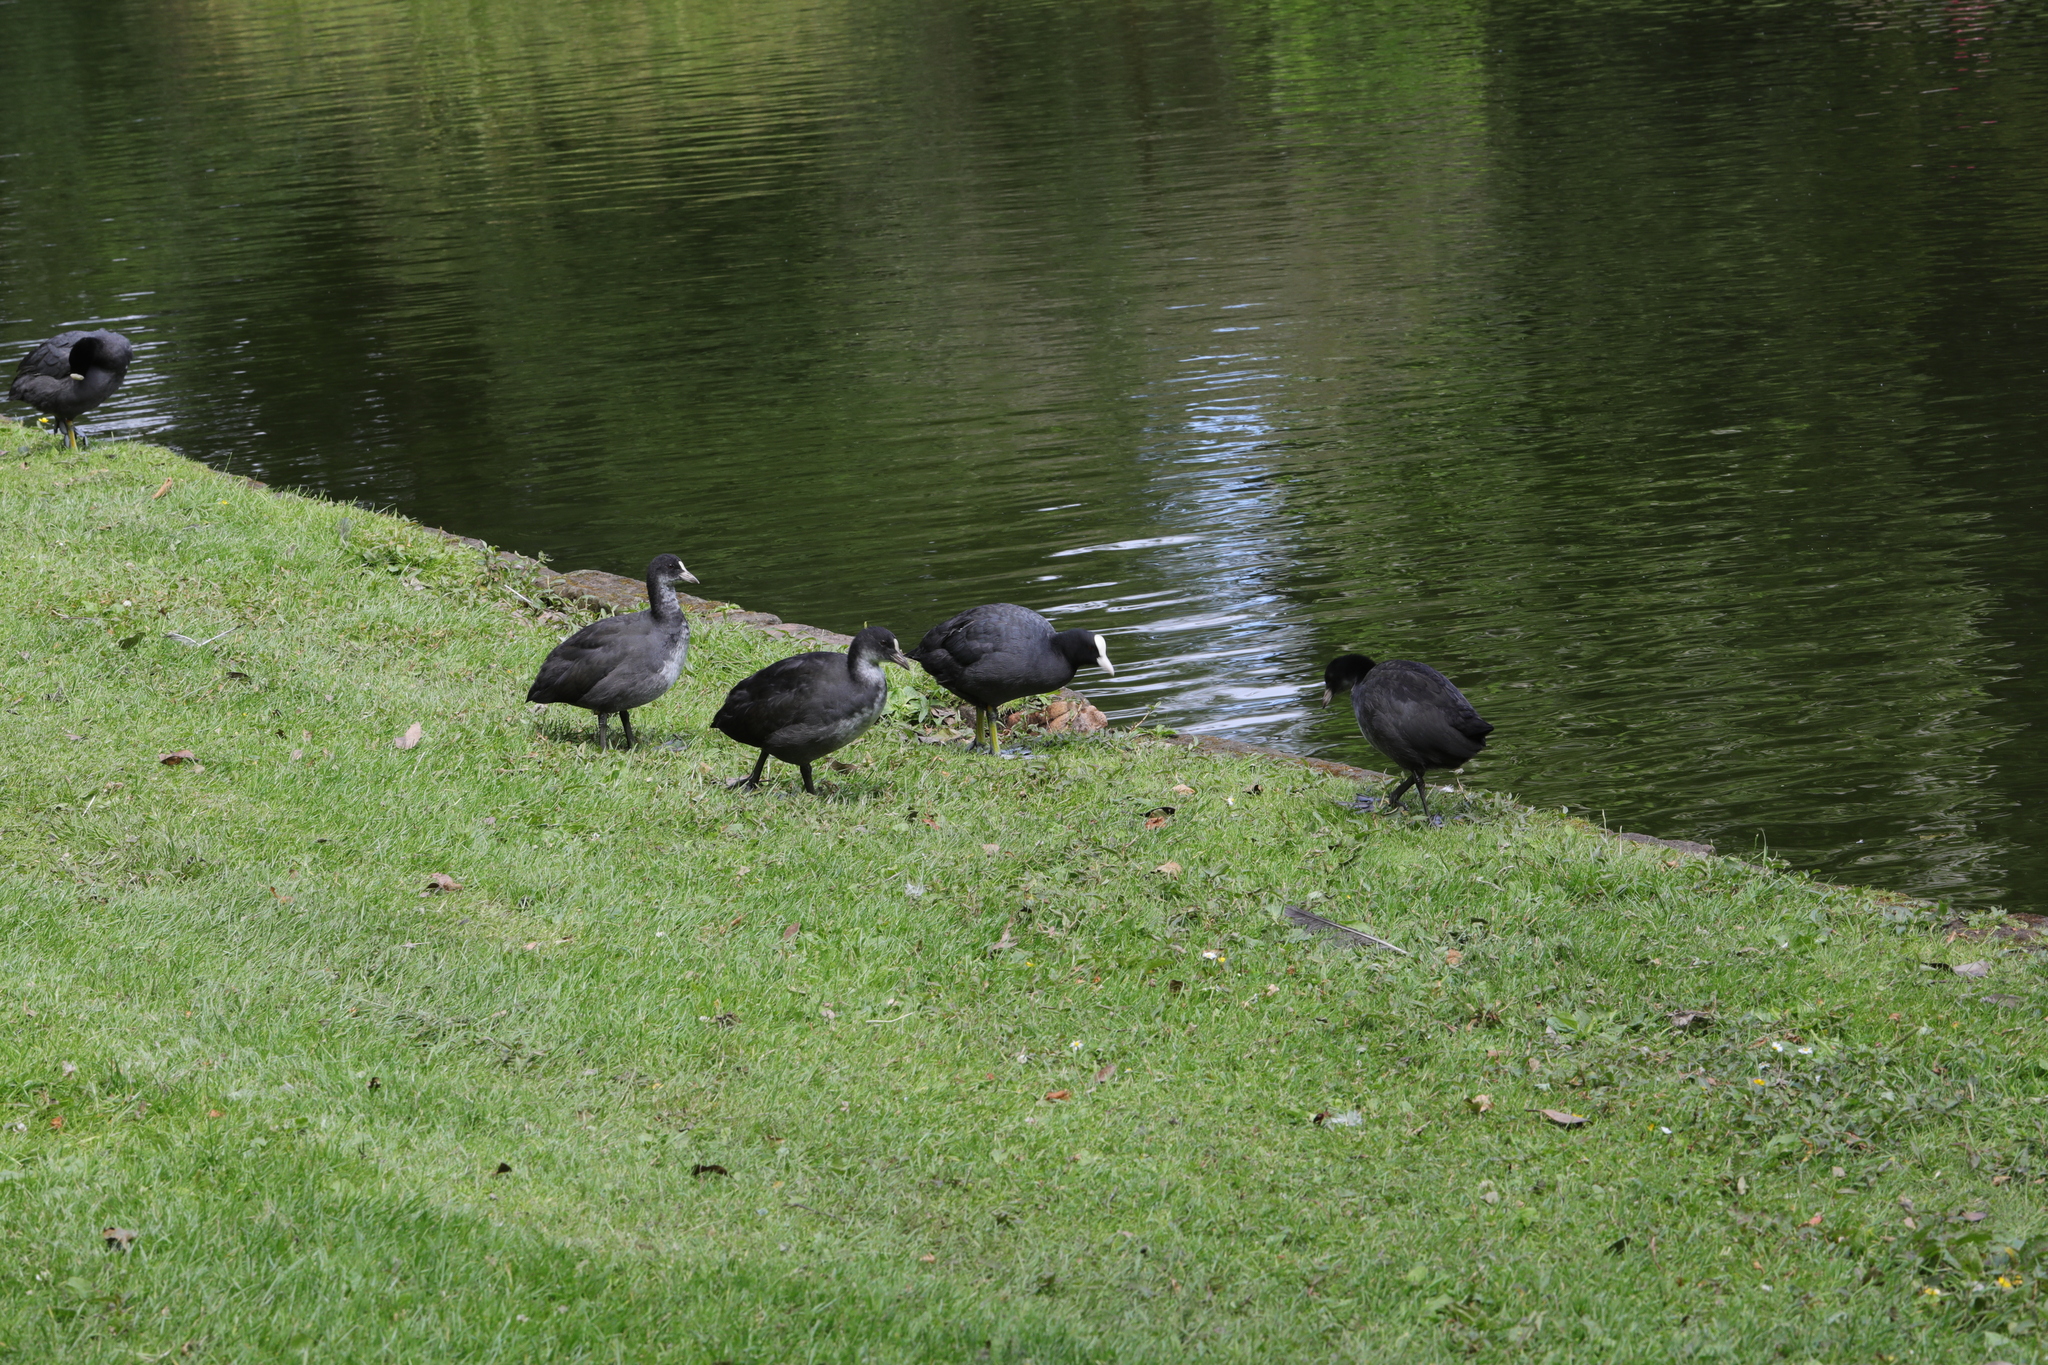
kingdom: Animalia
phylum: Chordata
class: Aves
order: Gruiformes
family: Rallidae
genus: Fulica
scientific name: Fulica atra
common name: Eurasian coot
